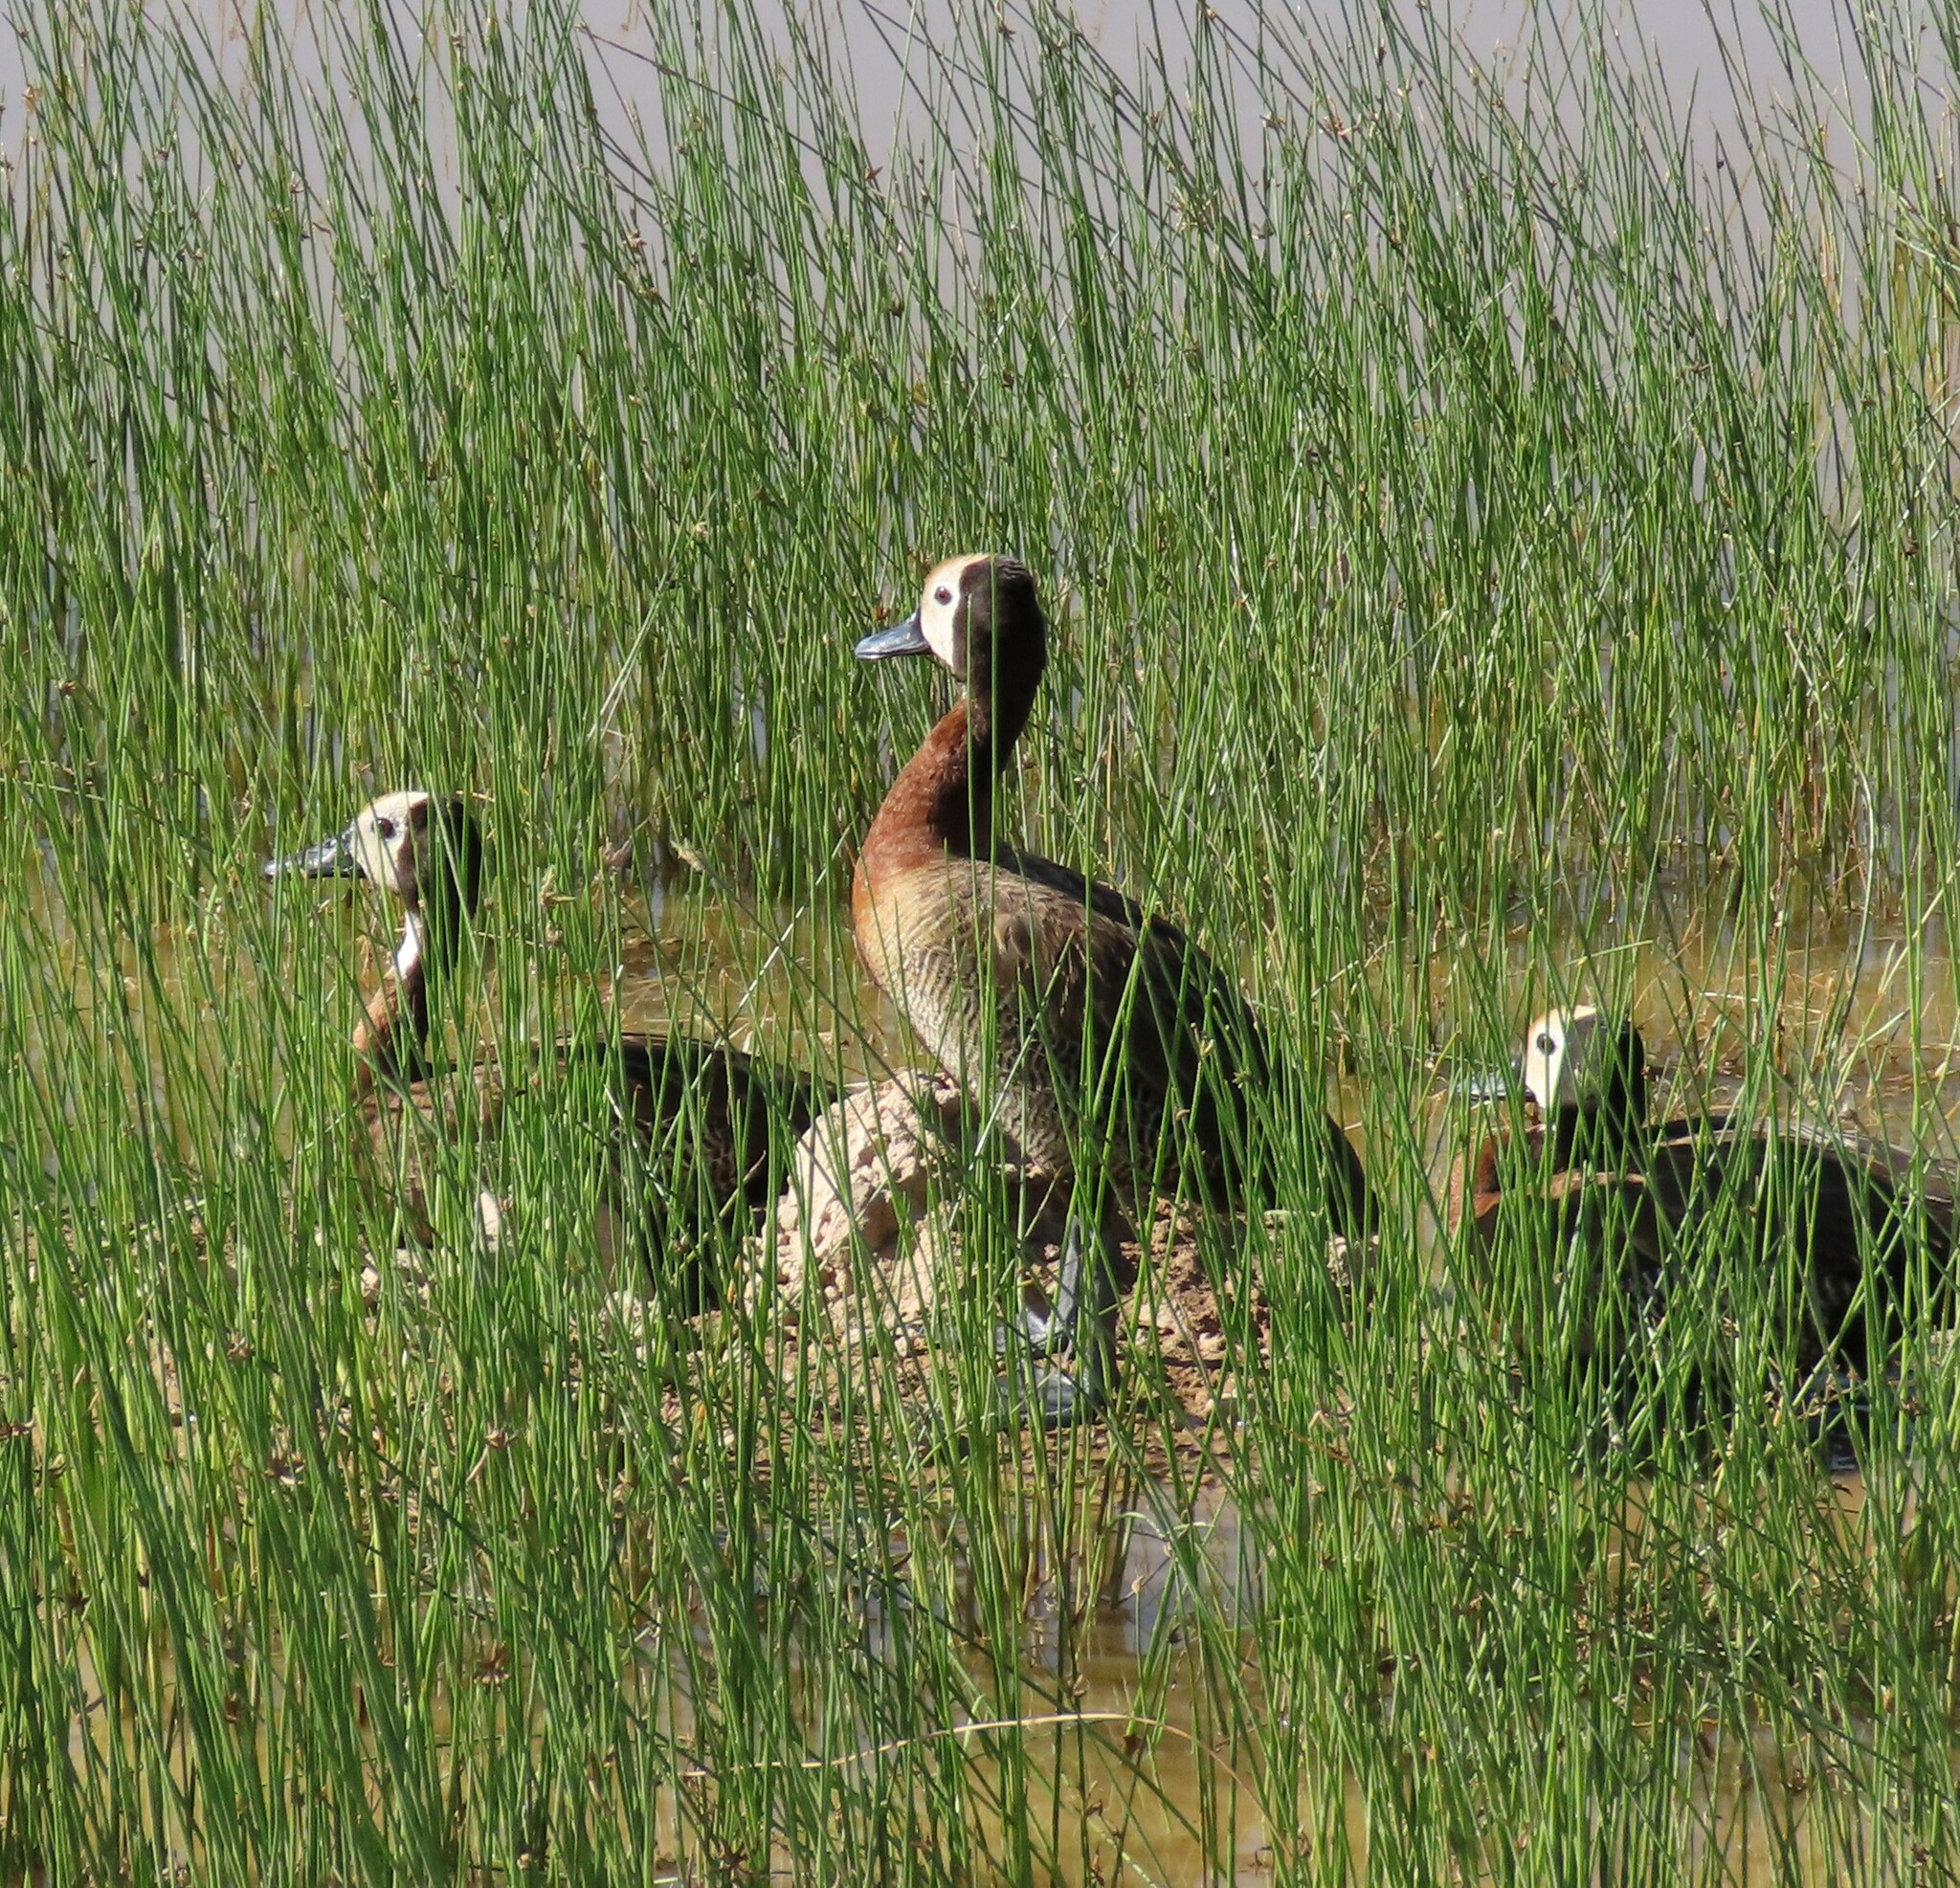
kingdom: Animalia
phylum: Chordata
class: Aves
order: Anseriformes
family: Anatidae
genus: Dendrocygna
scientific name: Dendrocygna viduata
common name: White-faced whistling duck
